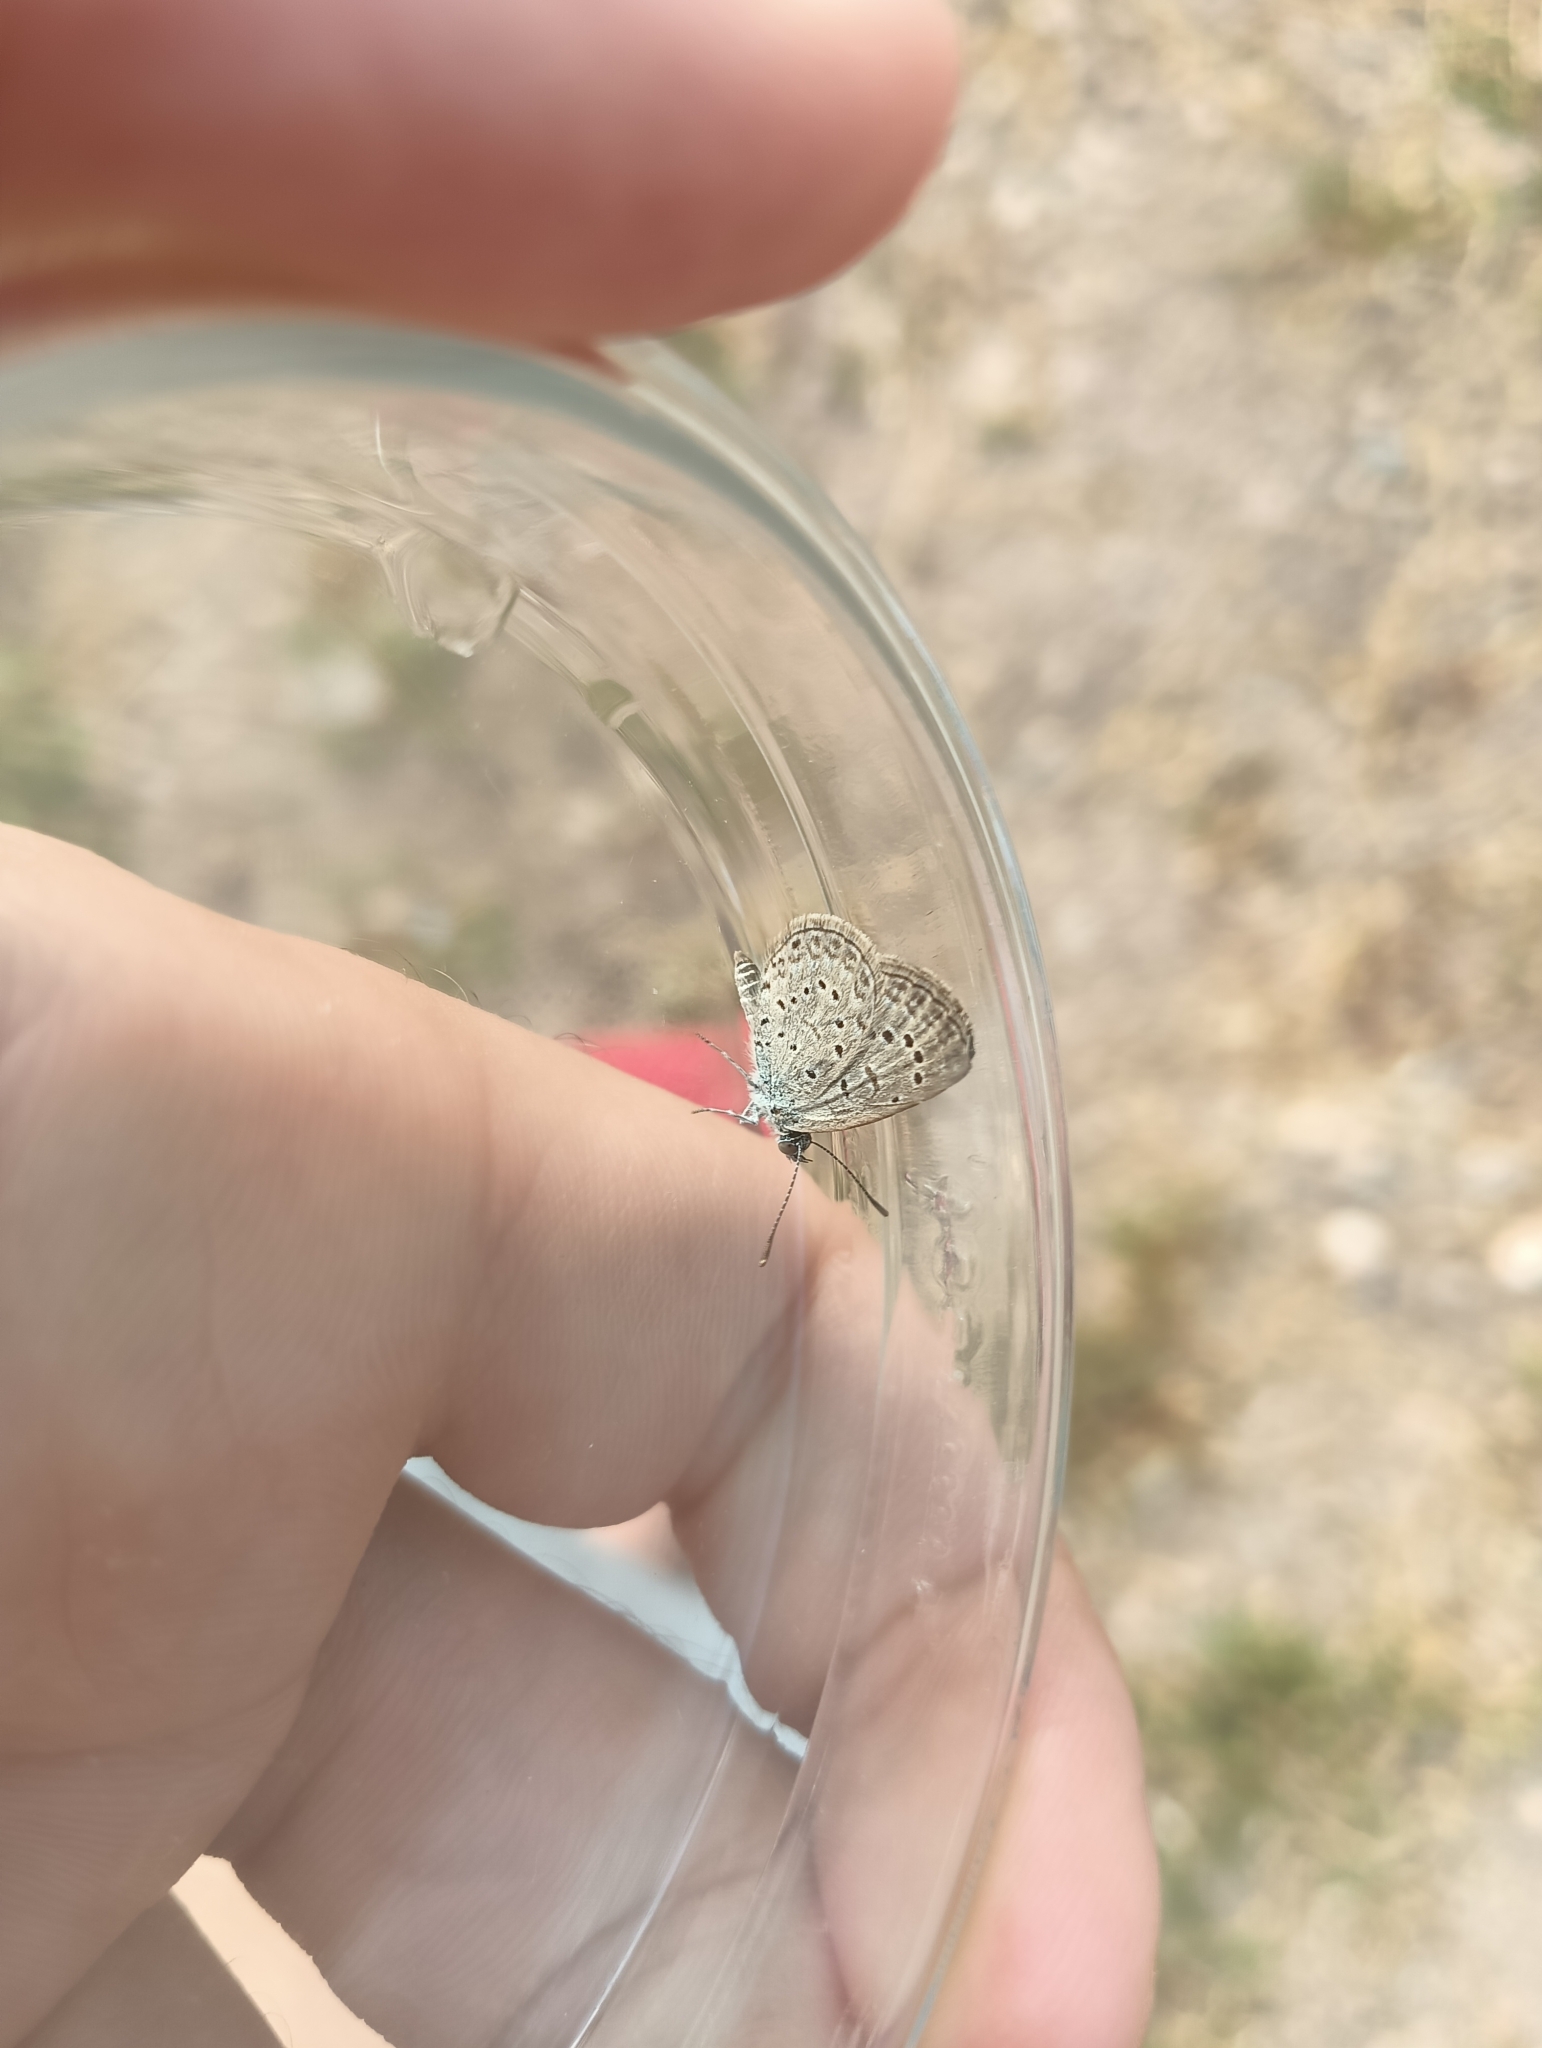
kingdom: Animalia
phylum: Arthropoda
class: Insecta
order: Lepidoptera
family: Lycaenidae
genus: Zizeeria
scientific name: Zizeeria knysna
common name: African grass blue
